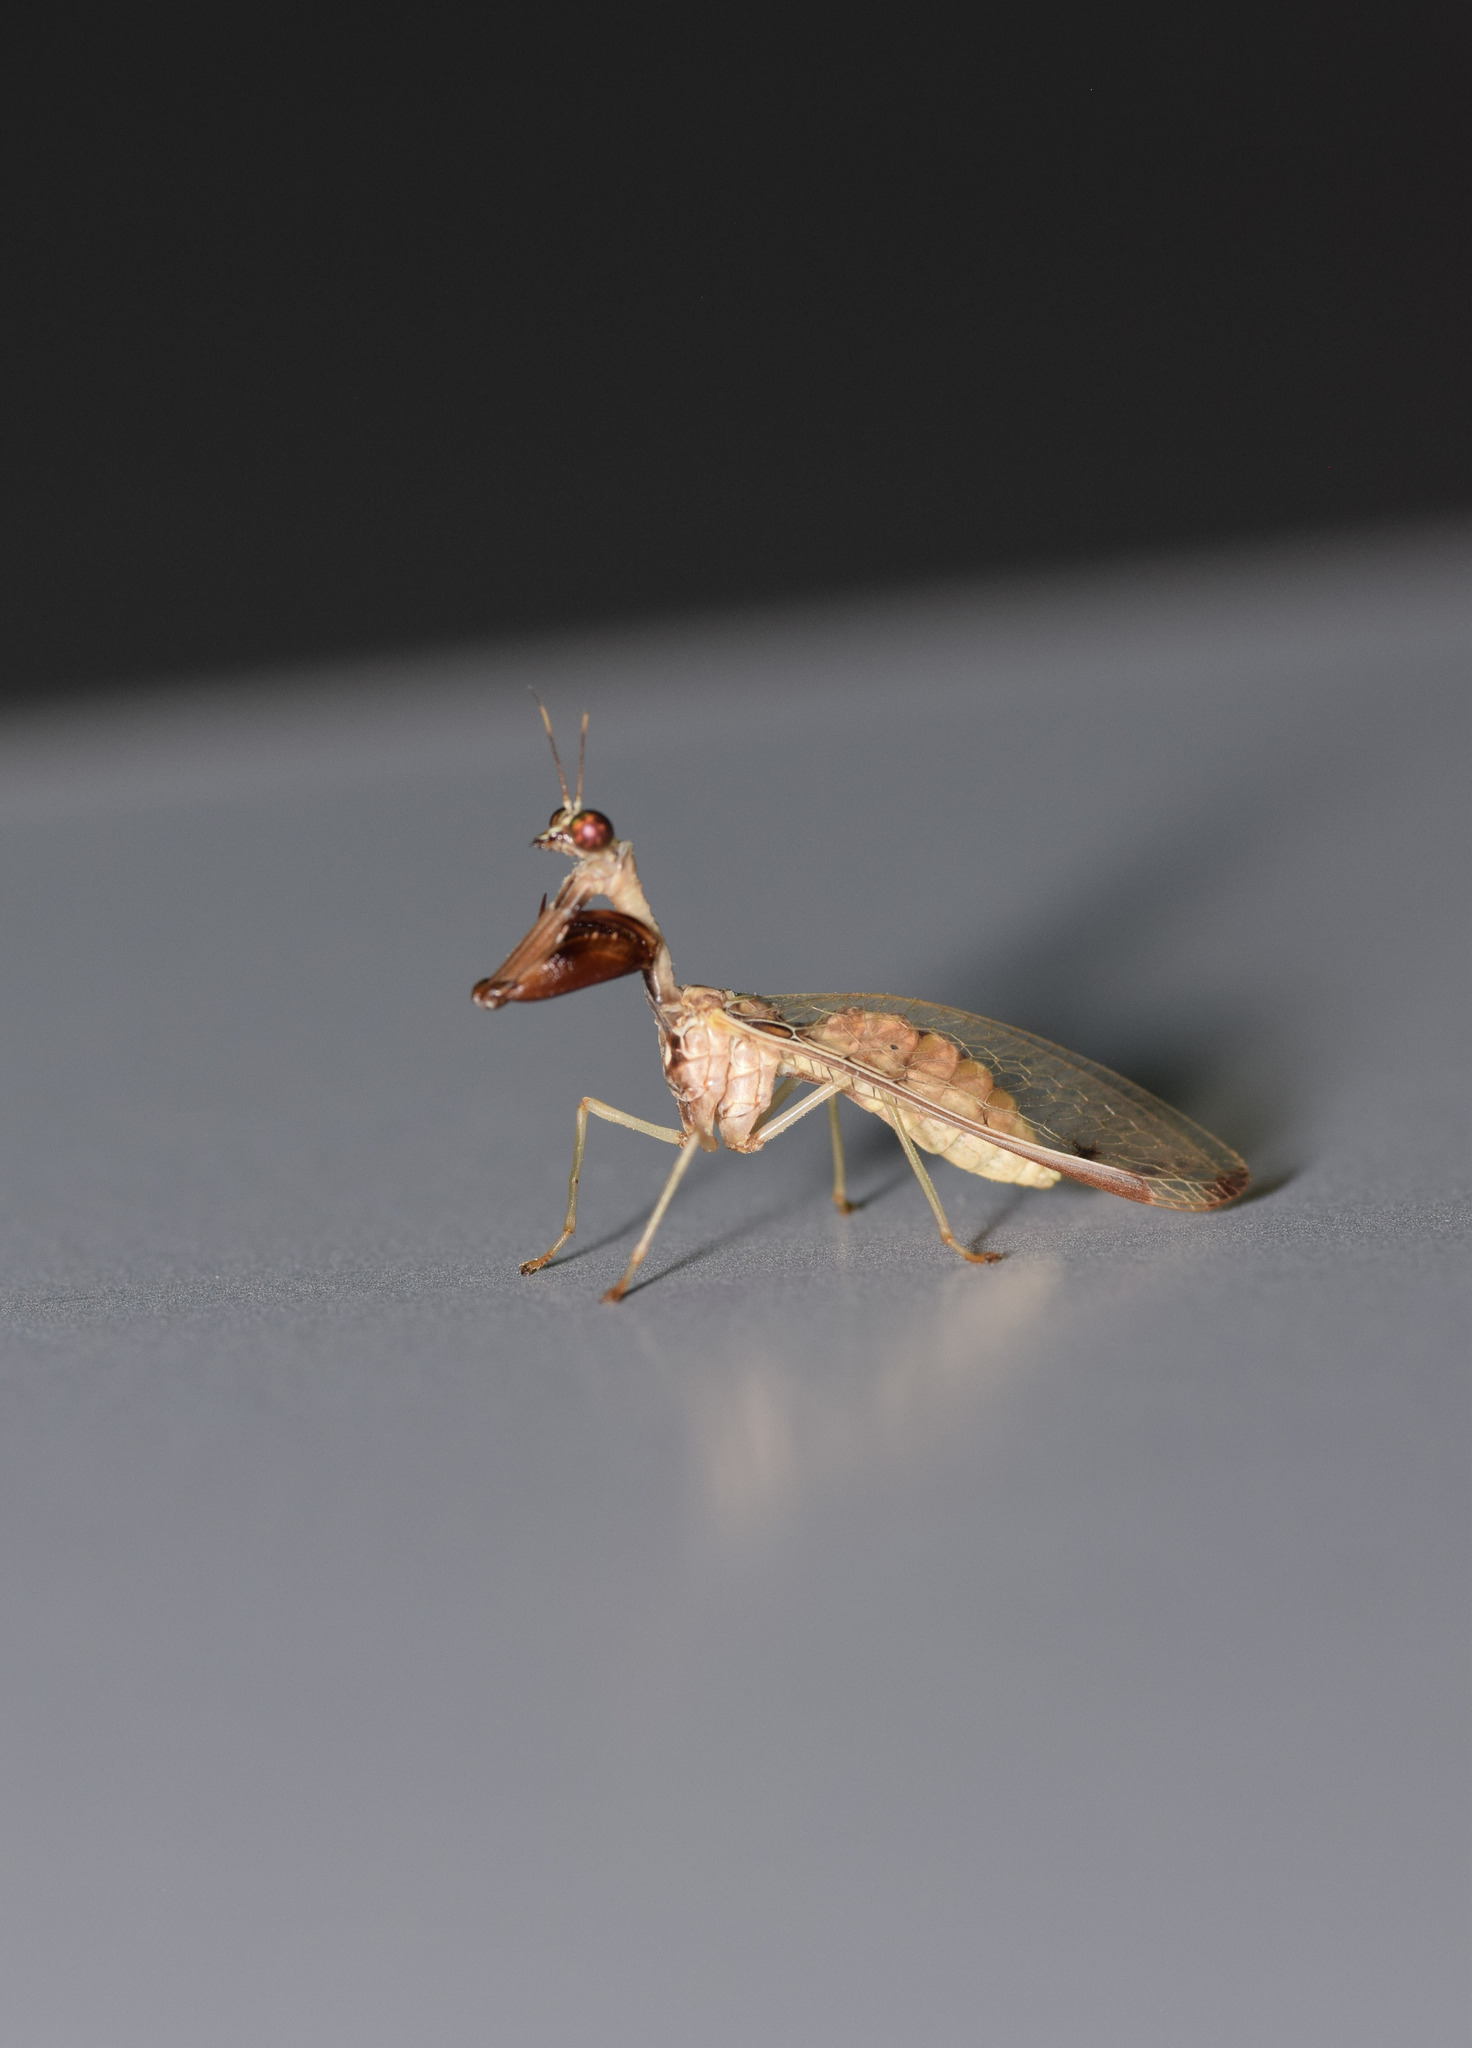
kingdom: Animalia
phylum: Arthropoda
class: Insecta
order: Neuroptera
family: Mantispidae
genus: Dicromantispa
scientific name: Dicromantispa interrupta
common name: Four-spotted mantidfly
